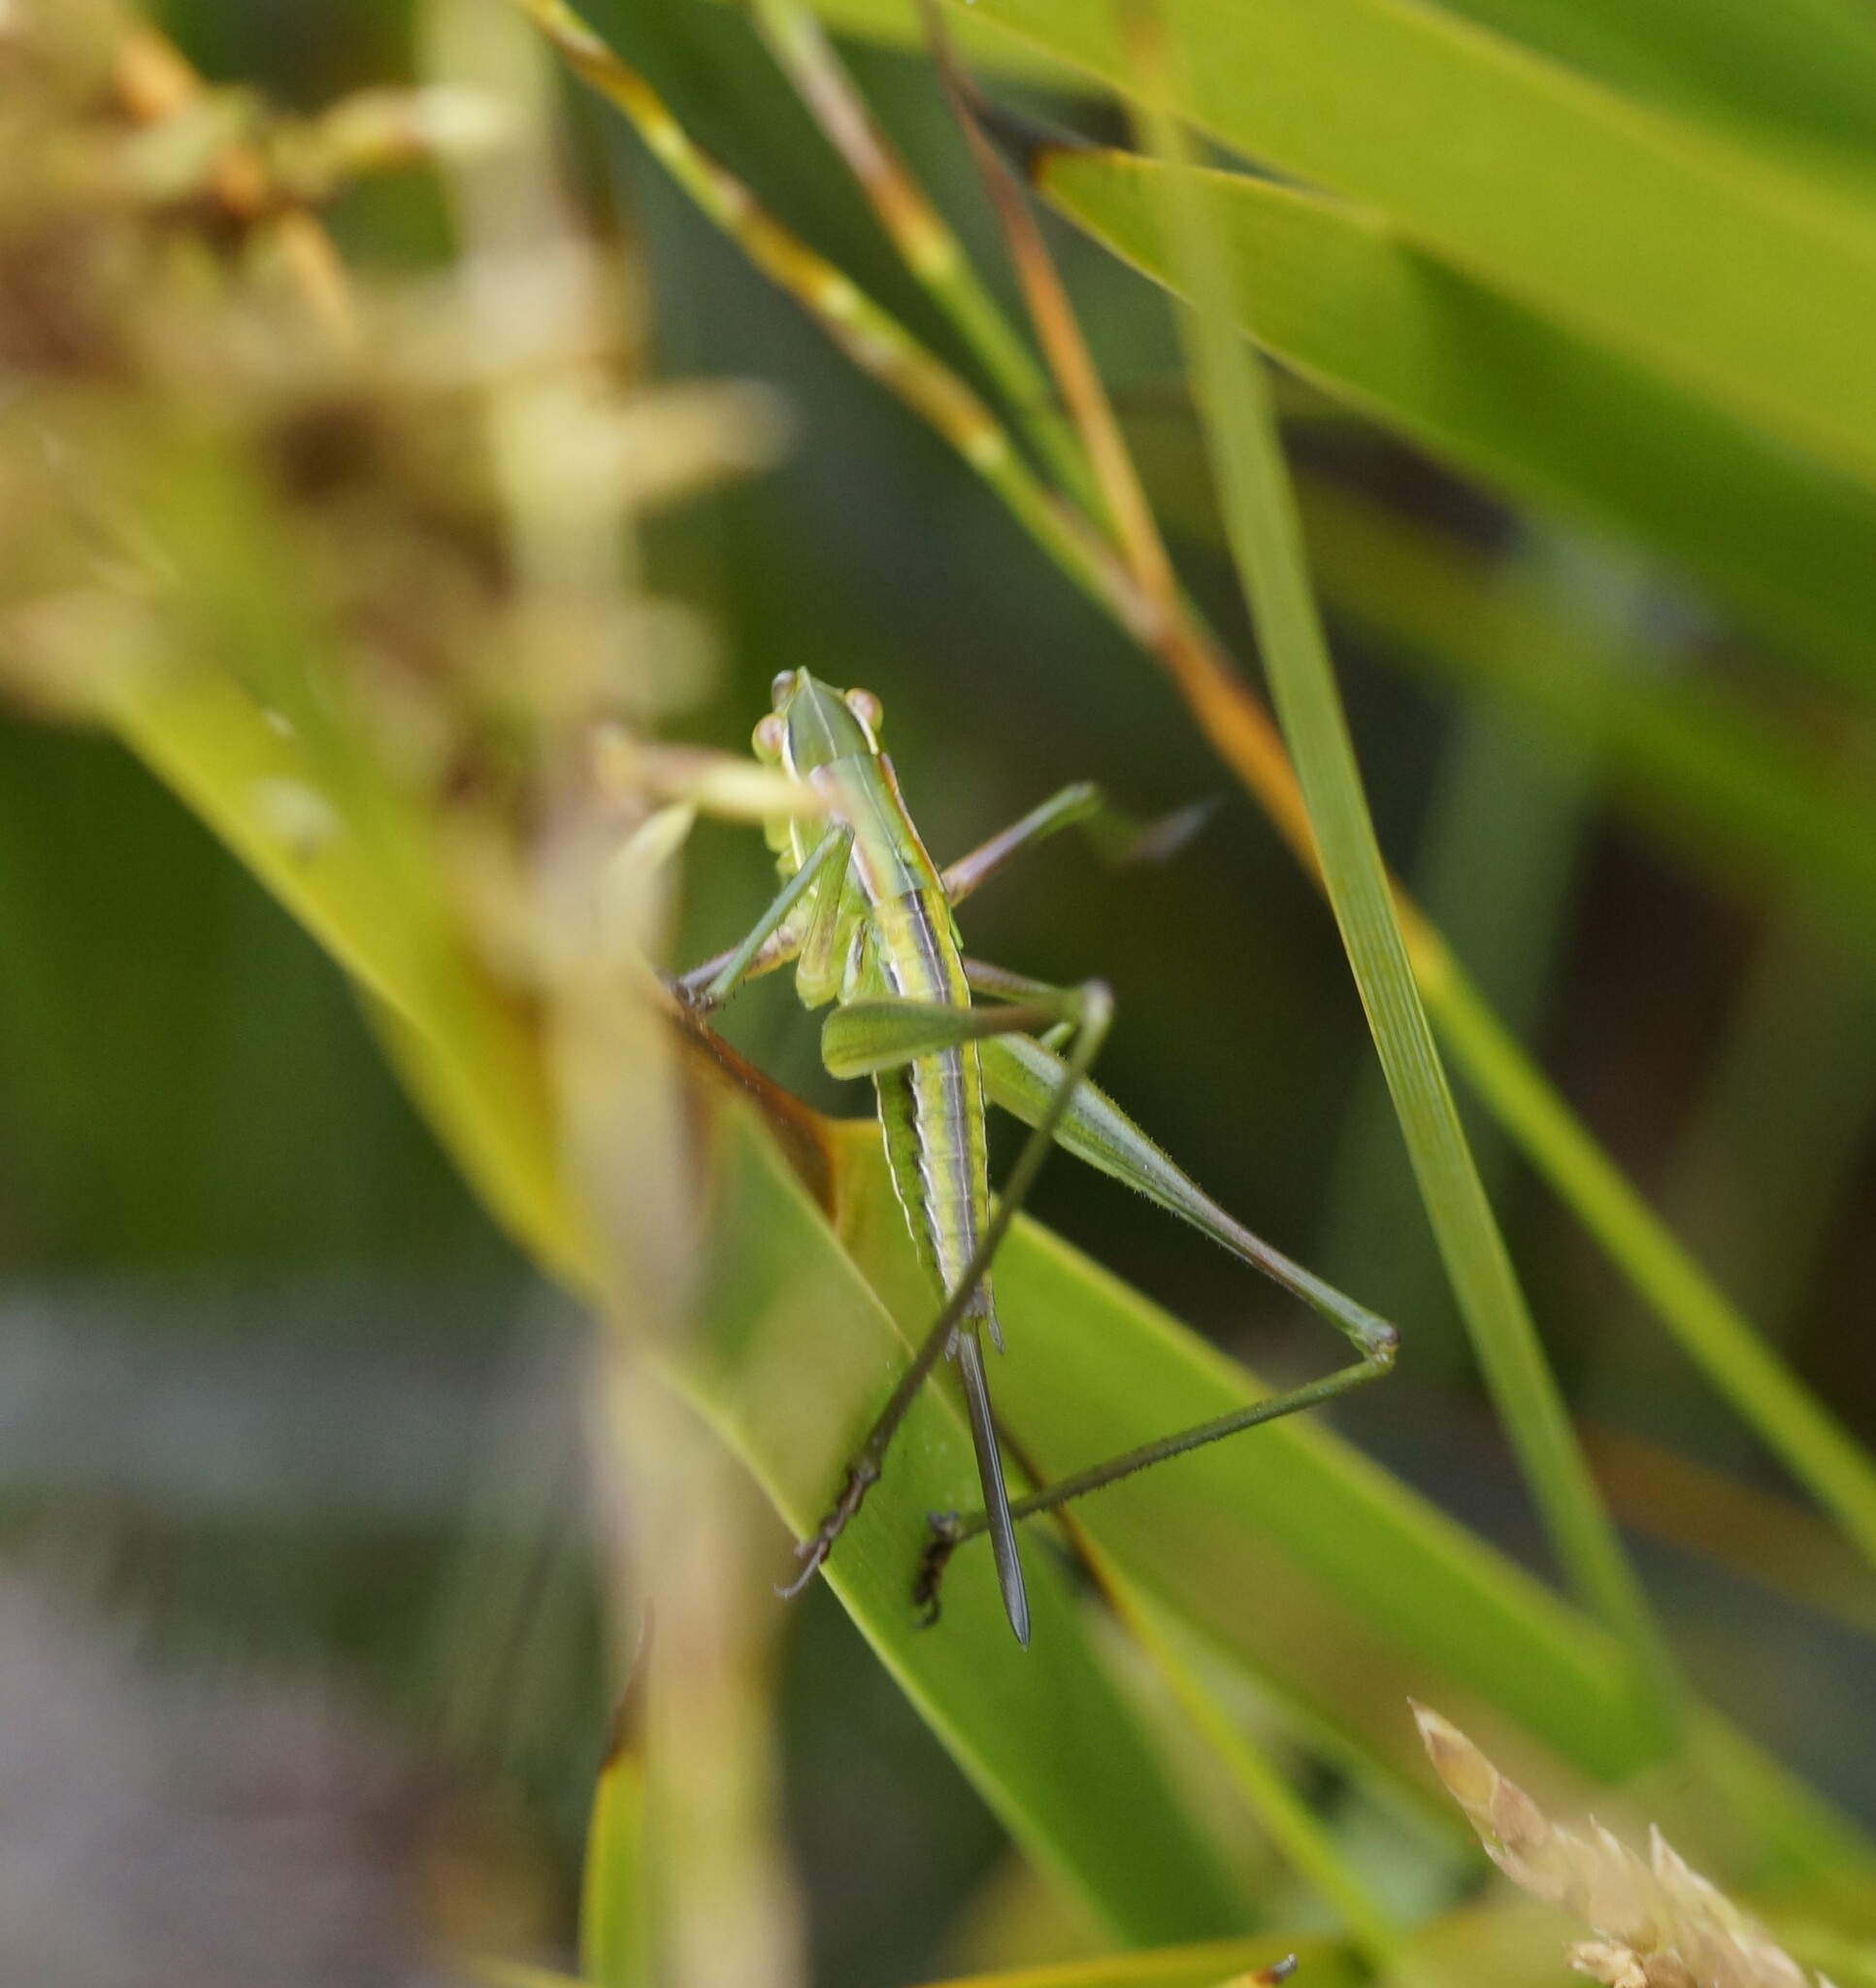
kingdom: Animalia
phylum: Arthropoda
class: Insecta
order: Orthoptera
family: Tettigoniidae
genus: Metaballus
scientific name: Metaballus sagaeformis
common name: Adelaide marauding katydid
